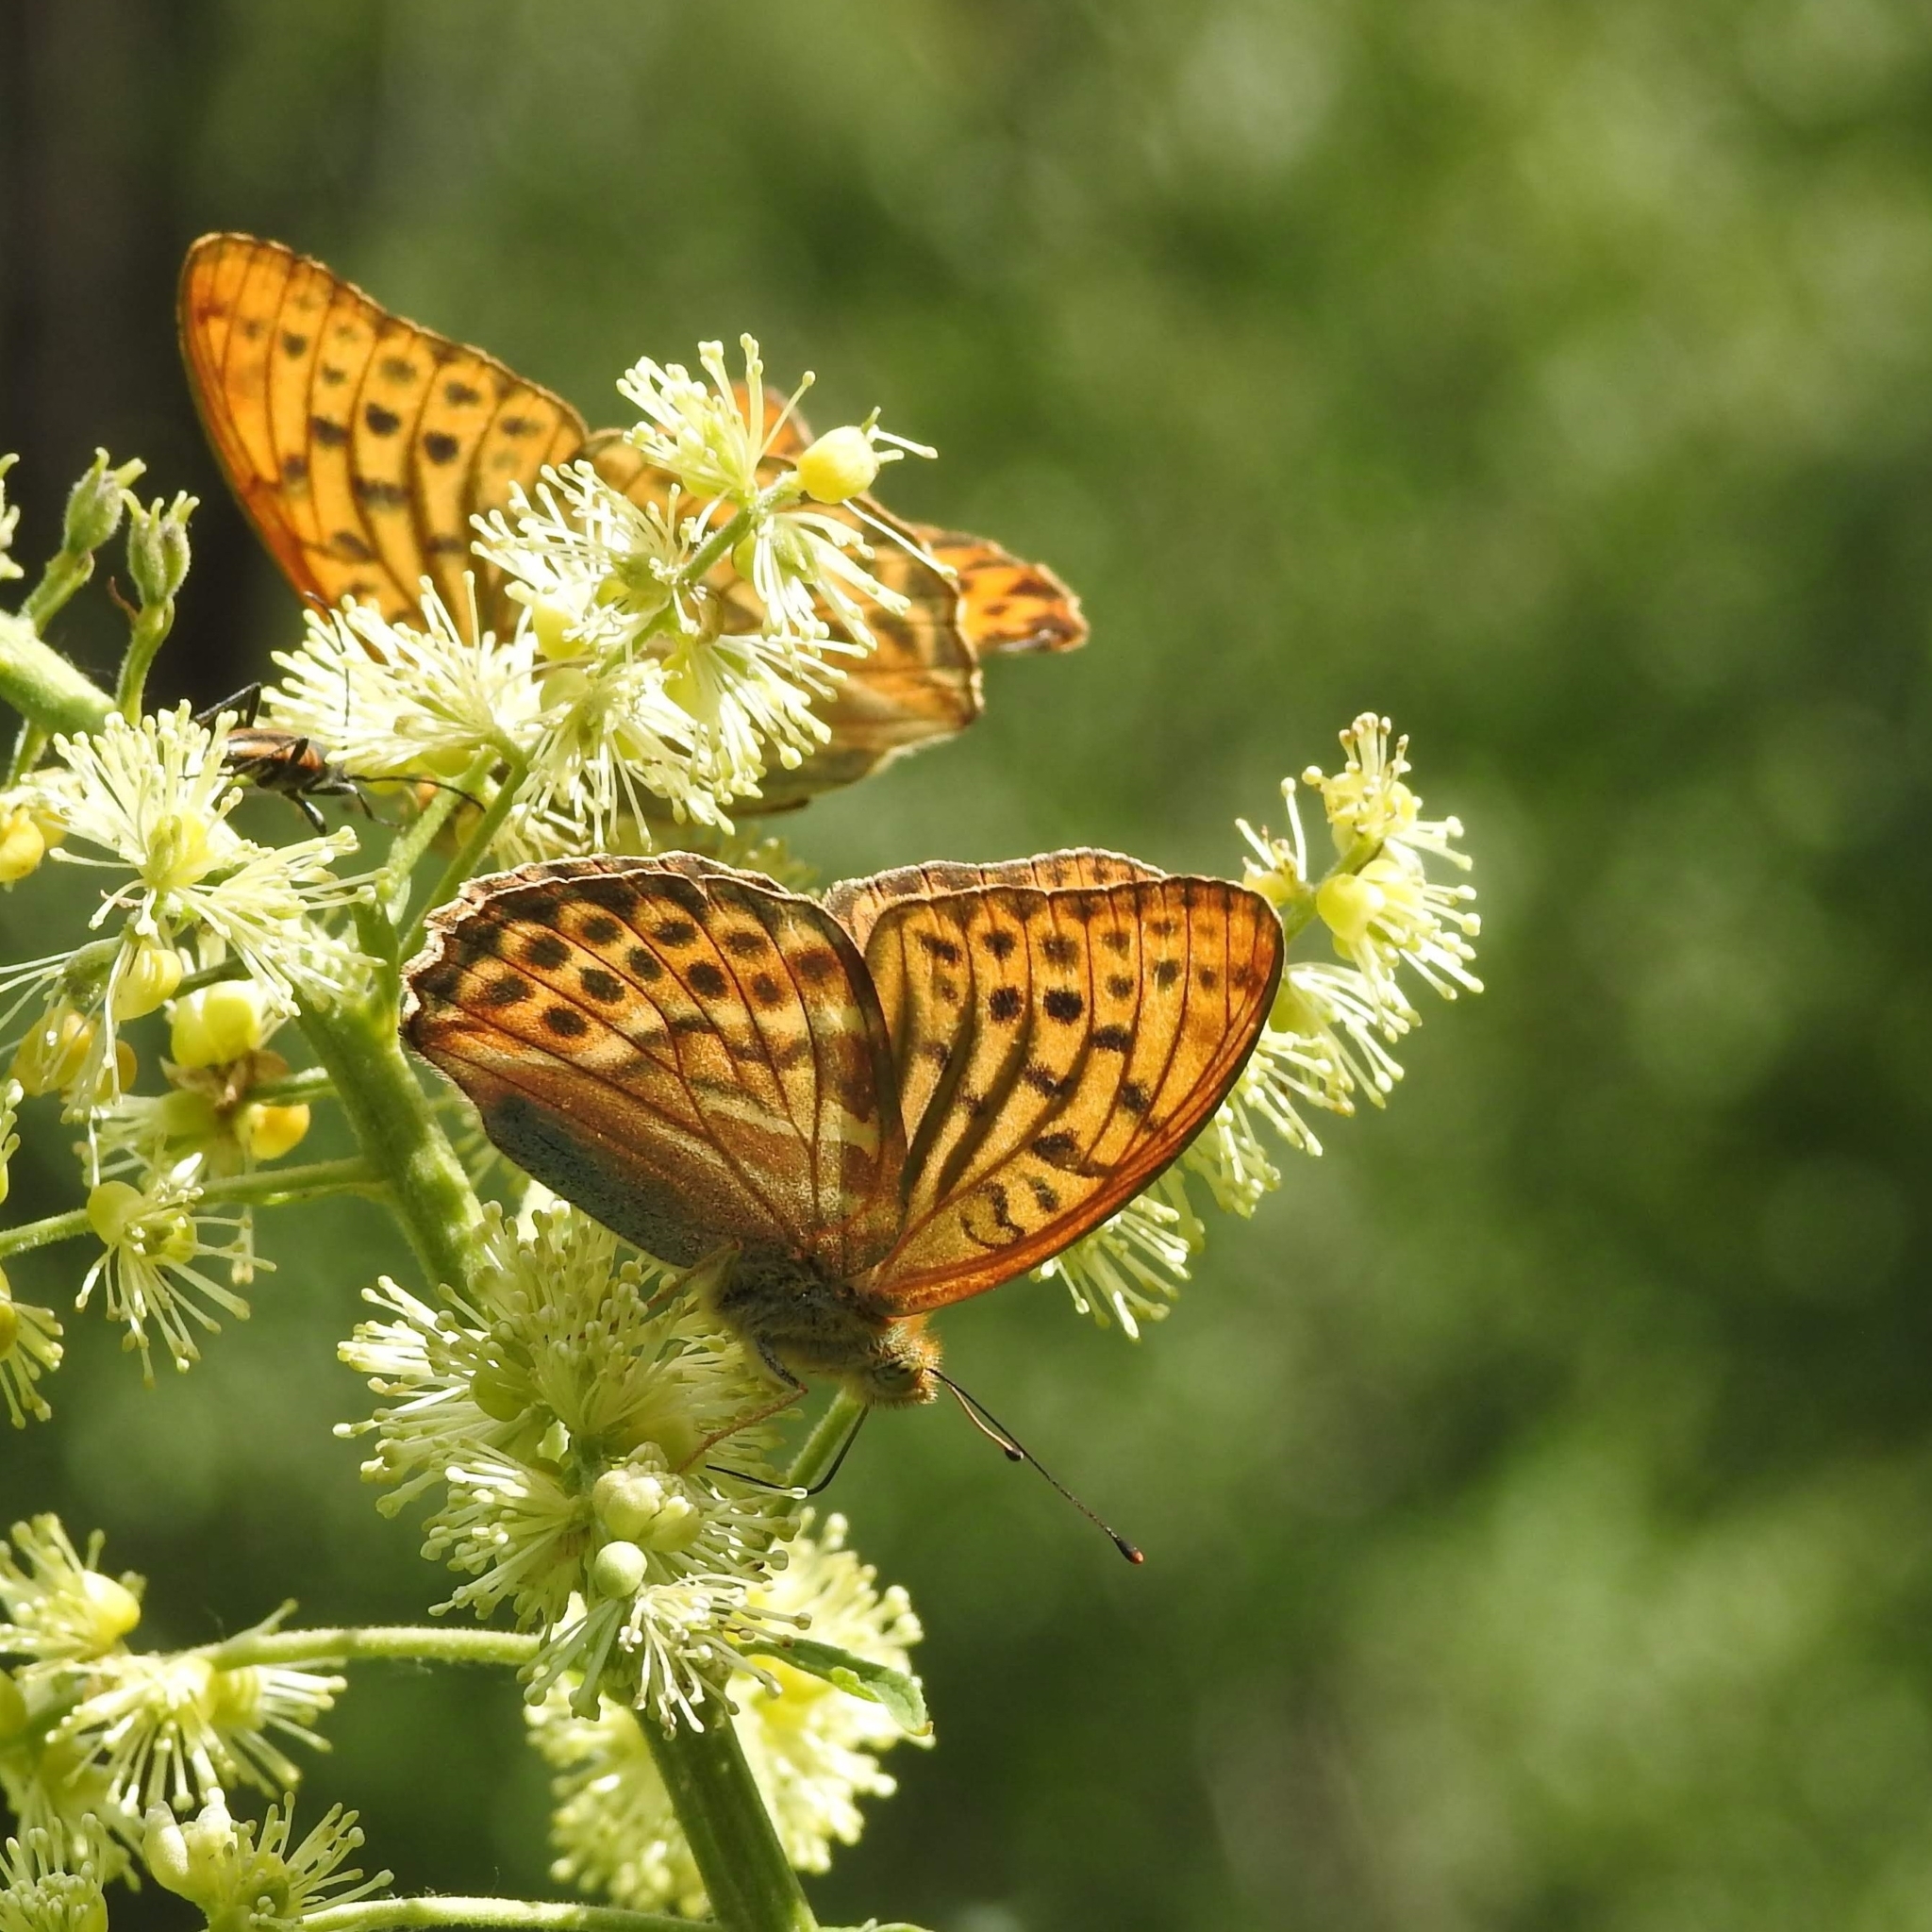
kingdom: Animalia
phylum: Arthropoda
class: Insecta
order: Lepidoptera
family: Nymphalidae
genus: Argynnis
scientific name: Argynnis paphia
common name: Silver-washed fritillary
